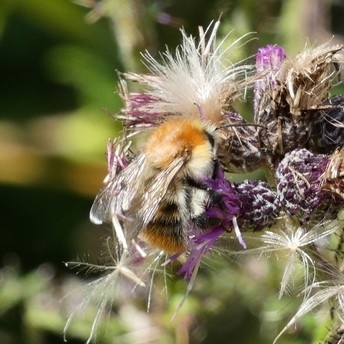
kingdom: Animalia
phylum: Arthropoda
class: Insecta
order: Hymenoptera
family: Apidae
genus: Bombus
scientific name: Bombus pascuorum
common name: Common carder bee
